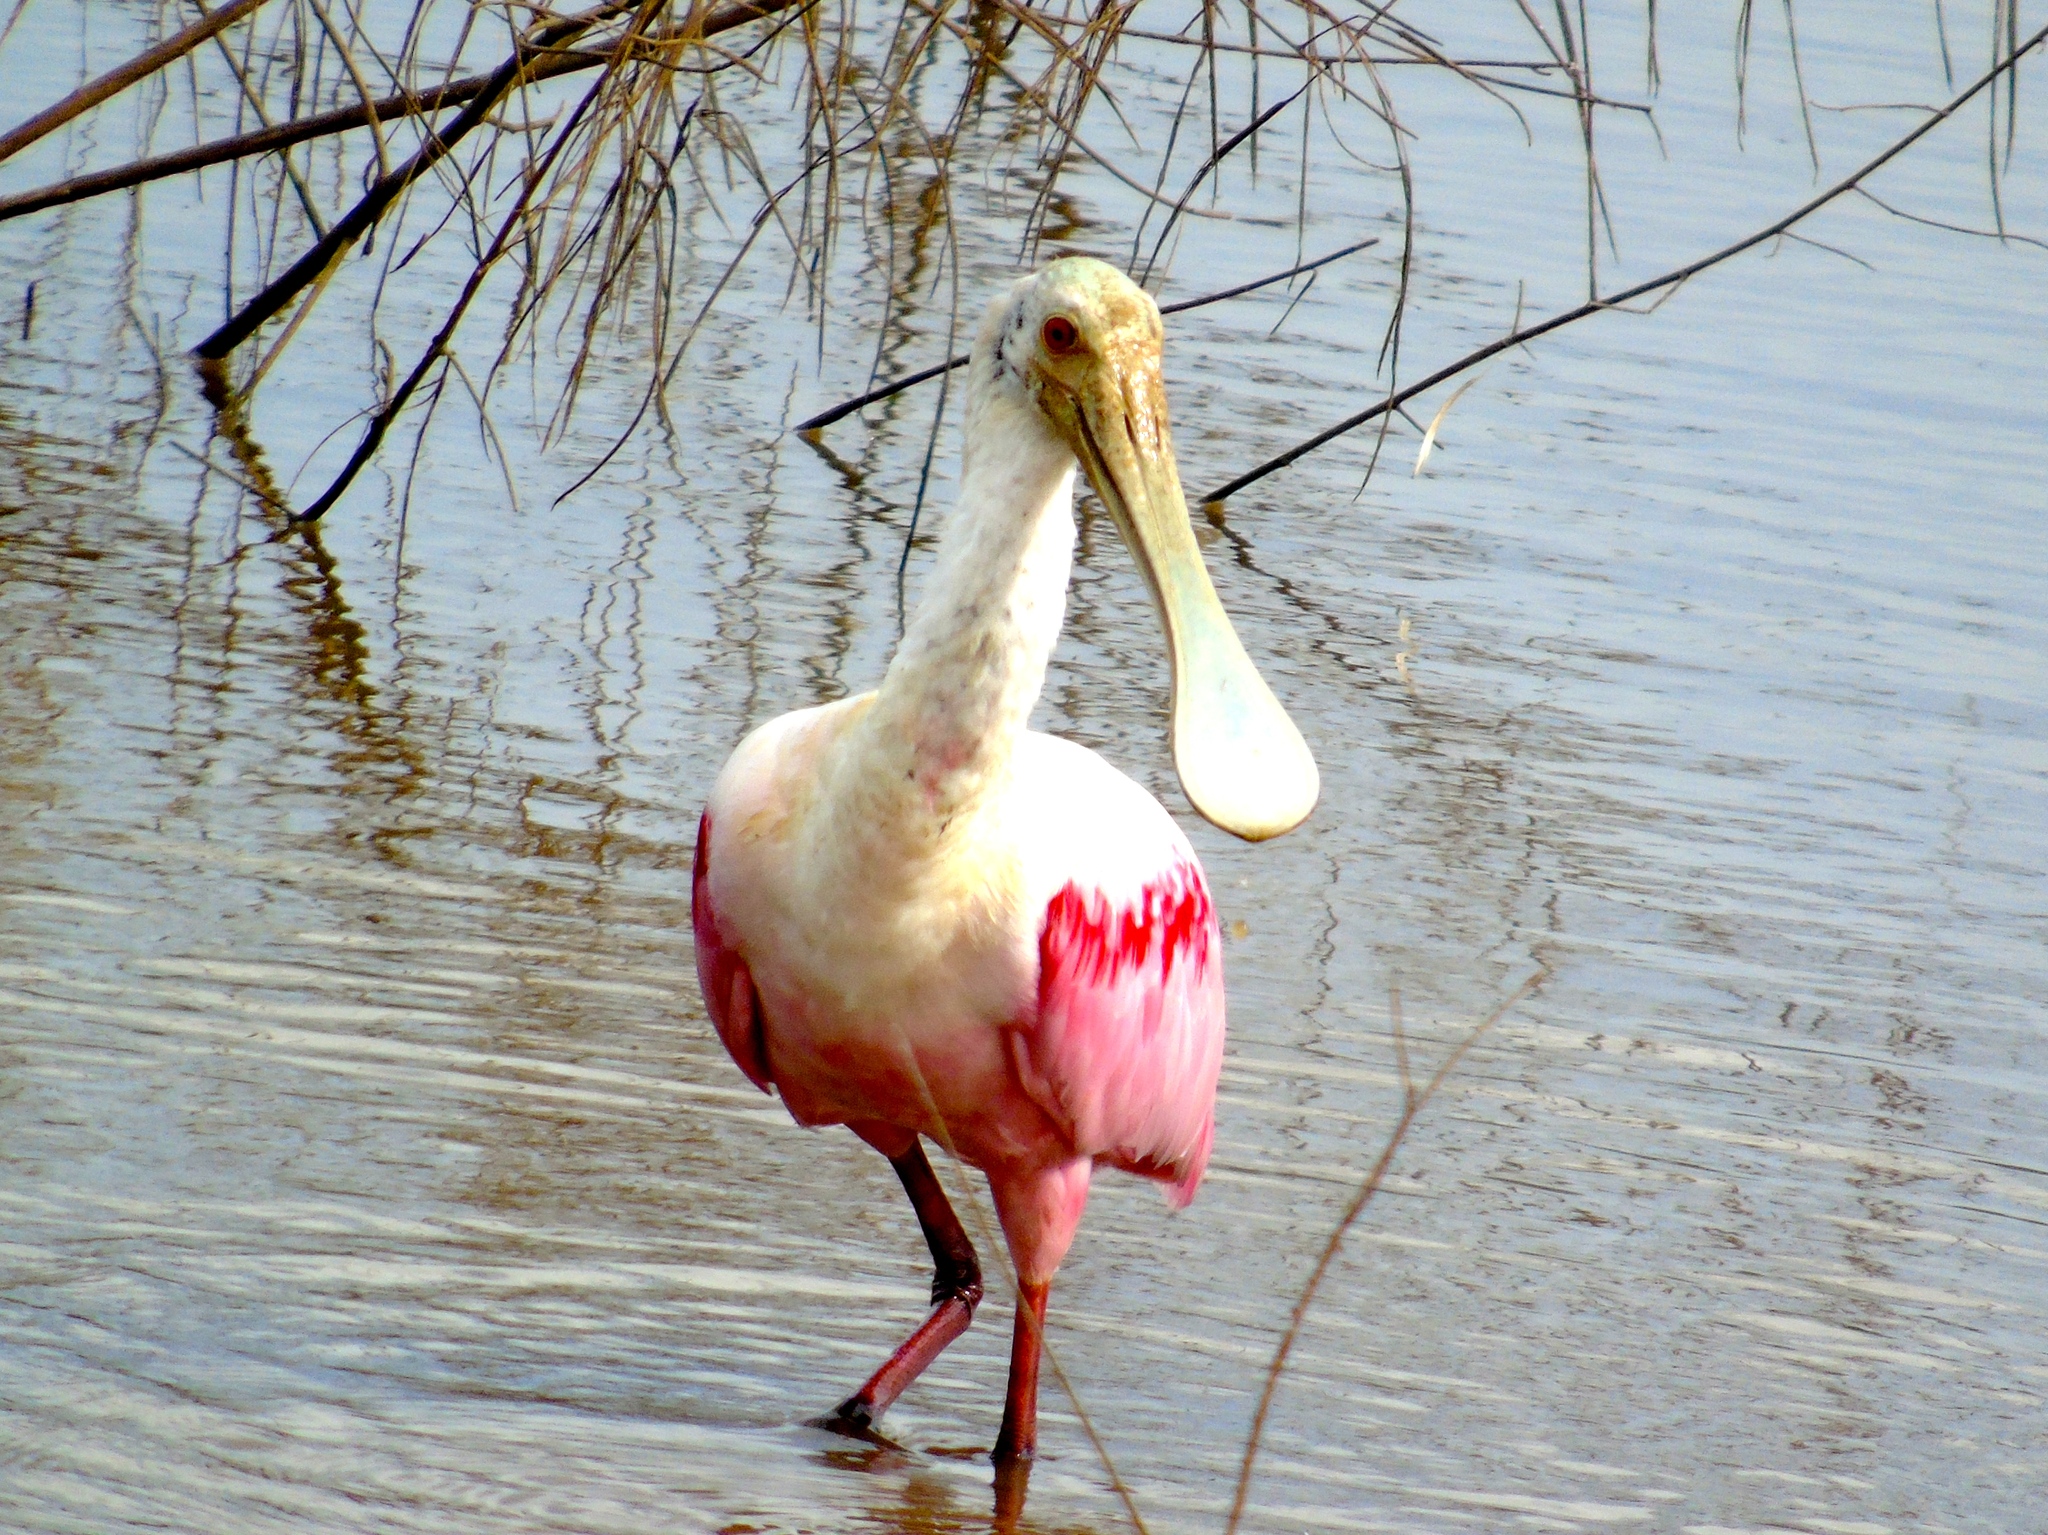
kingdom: Animalia
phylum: Chordata
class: Aves
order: Pelecaniformes
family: Threskiornithidae
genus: Platalea
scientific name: Platalea ajaja
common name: Roseate spoonbill
